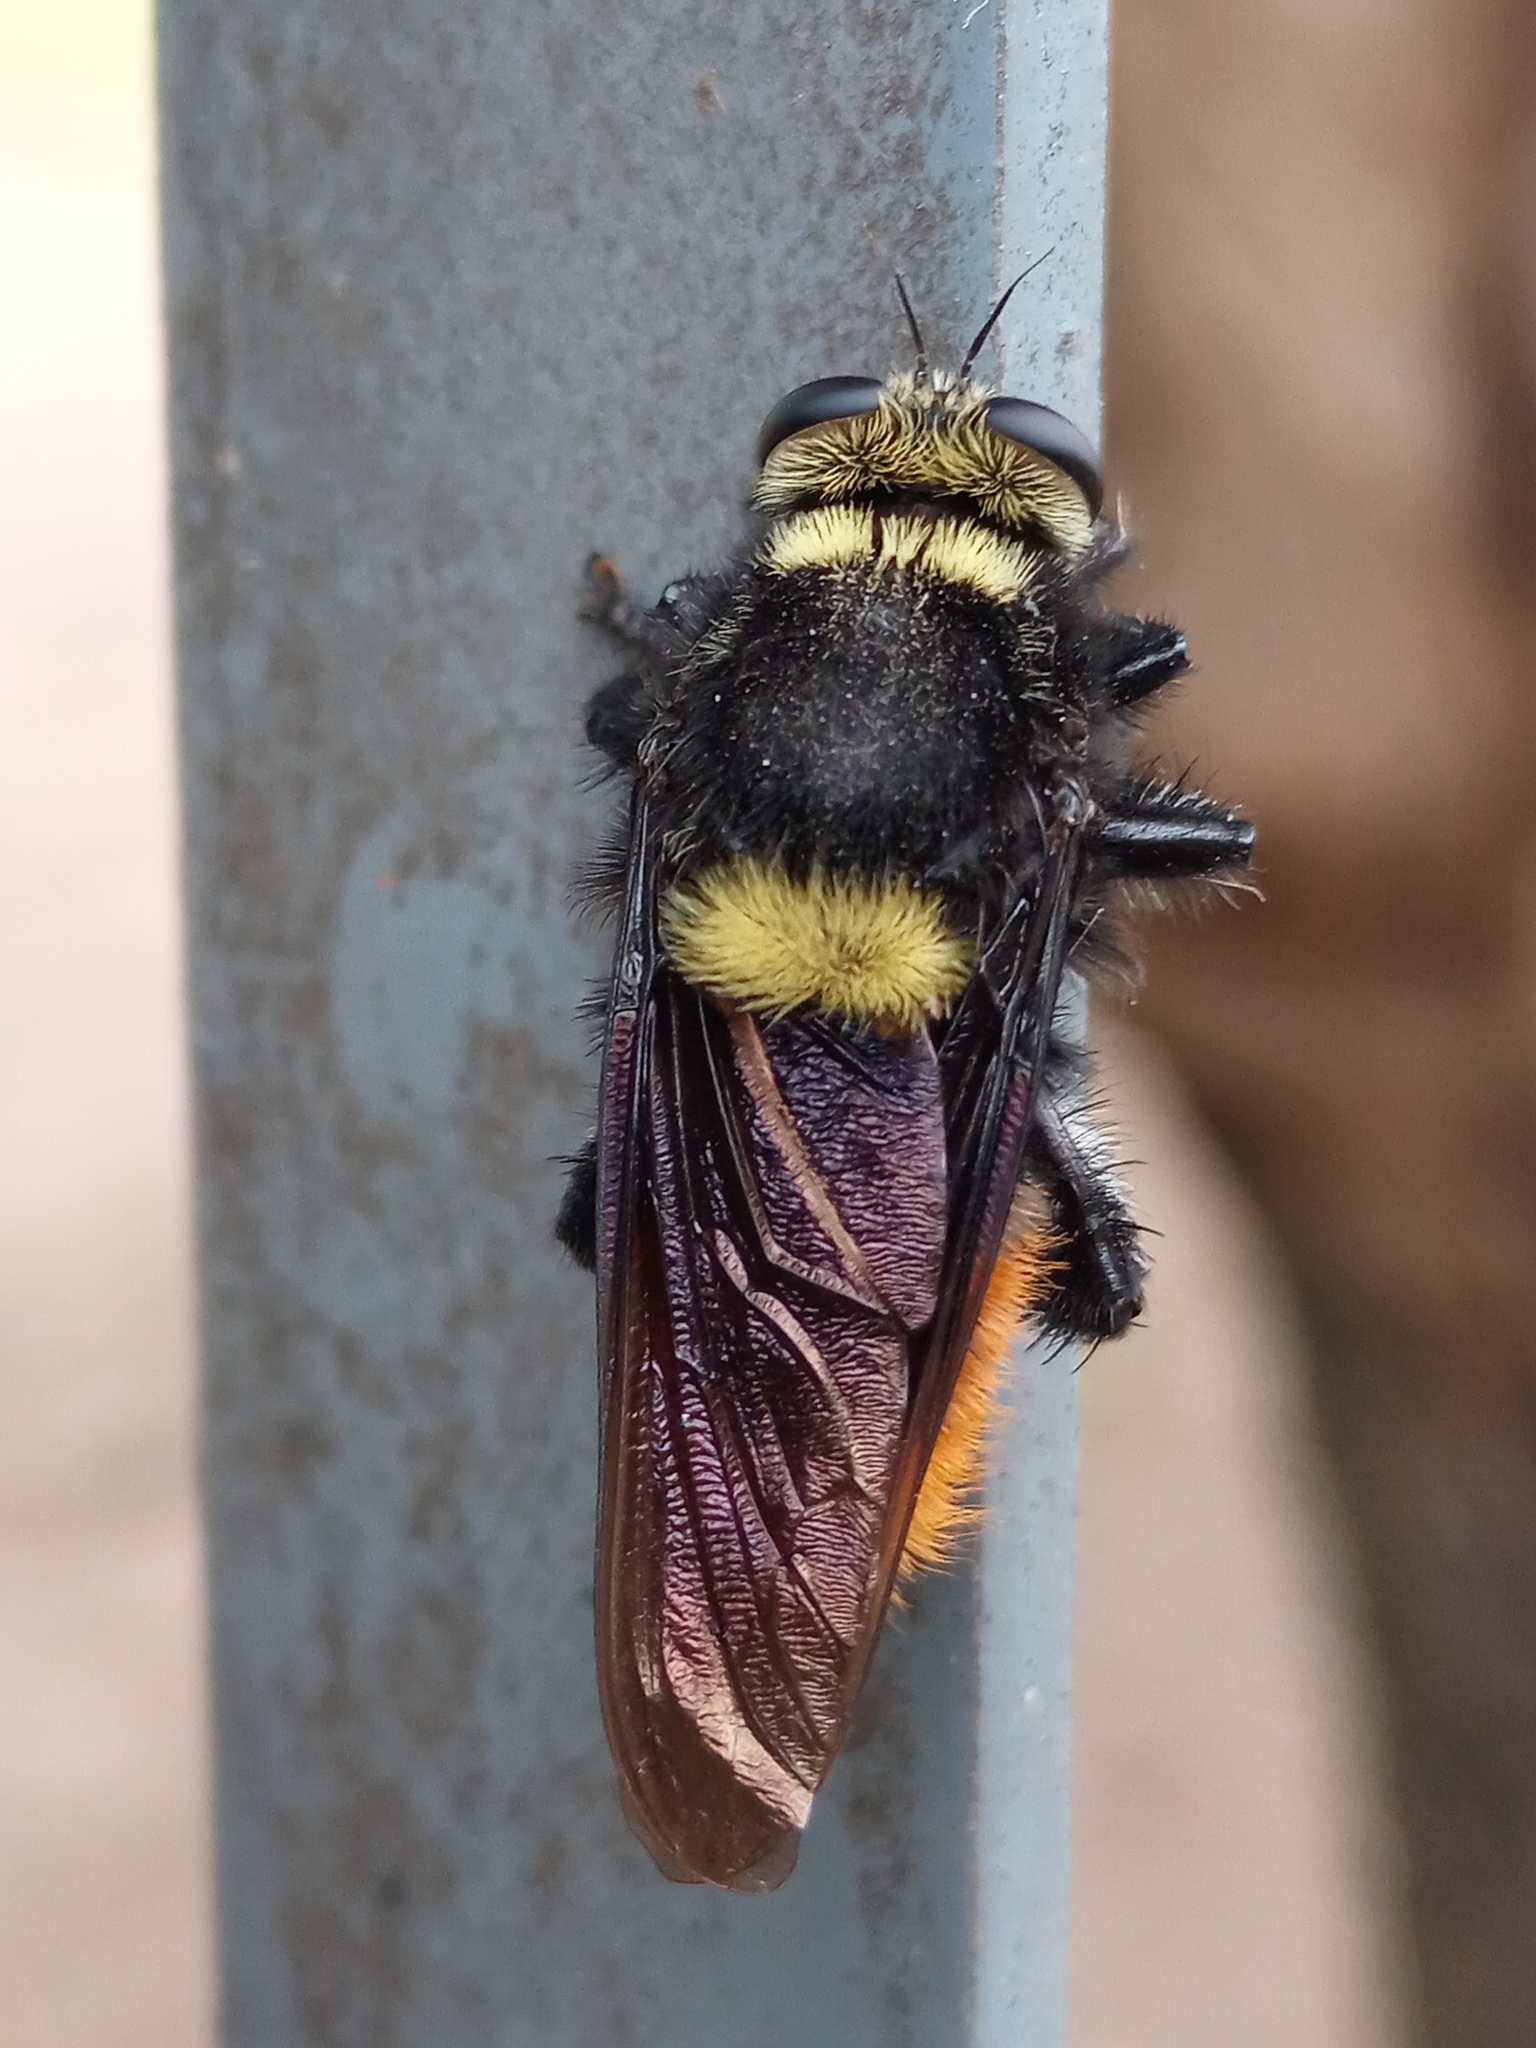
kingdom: Animalia
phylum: Arthropoda
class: Insecta
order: Diptera
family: Asilidae
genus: Mallophora
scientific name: Mallophora ruficauda
